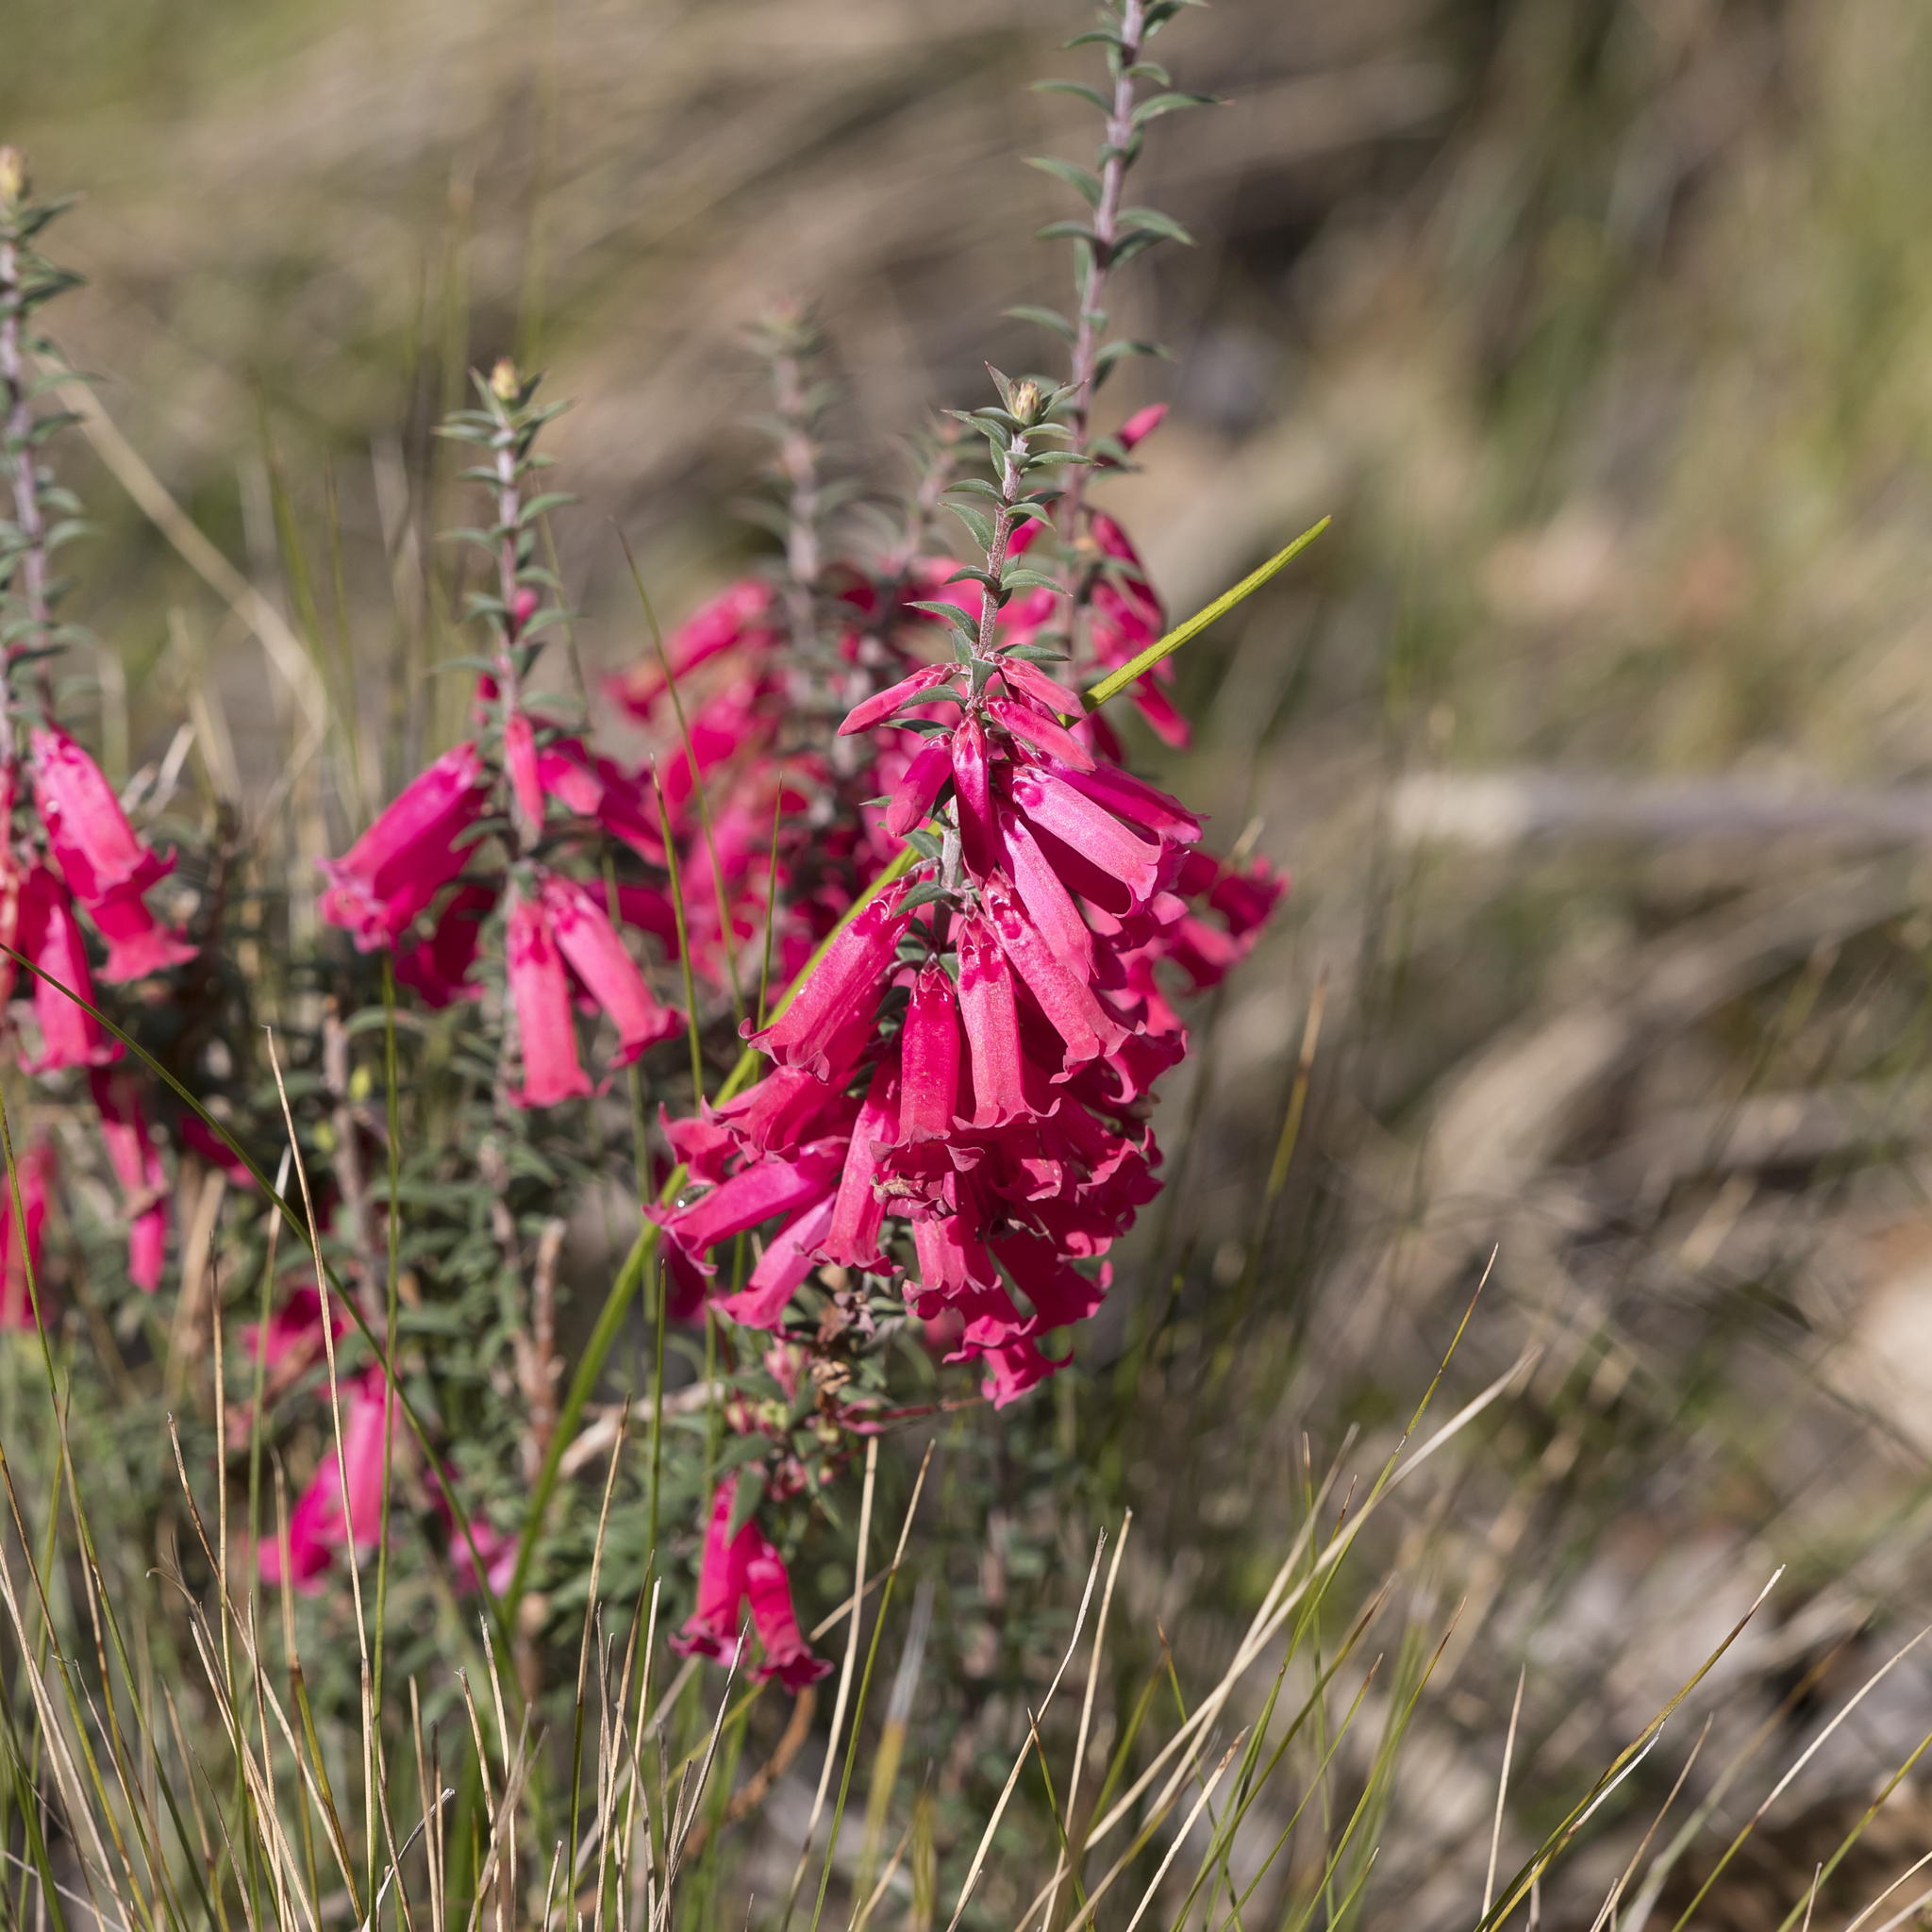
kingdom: Plantae
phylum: Tracheophyta
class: Magnoliopsida
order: Ericales
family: Ericaceae
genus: Epacris
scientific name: Epacris impressa
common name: Common-heath
